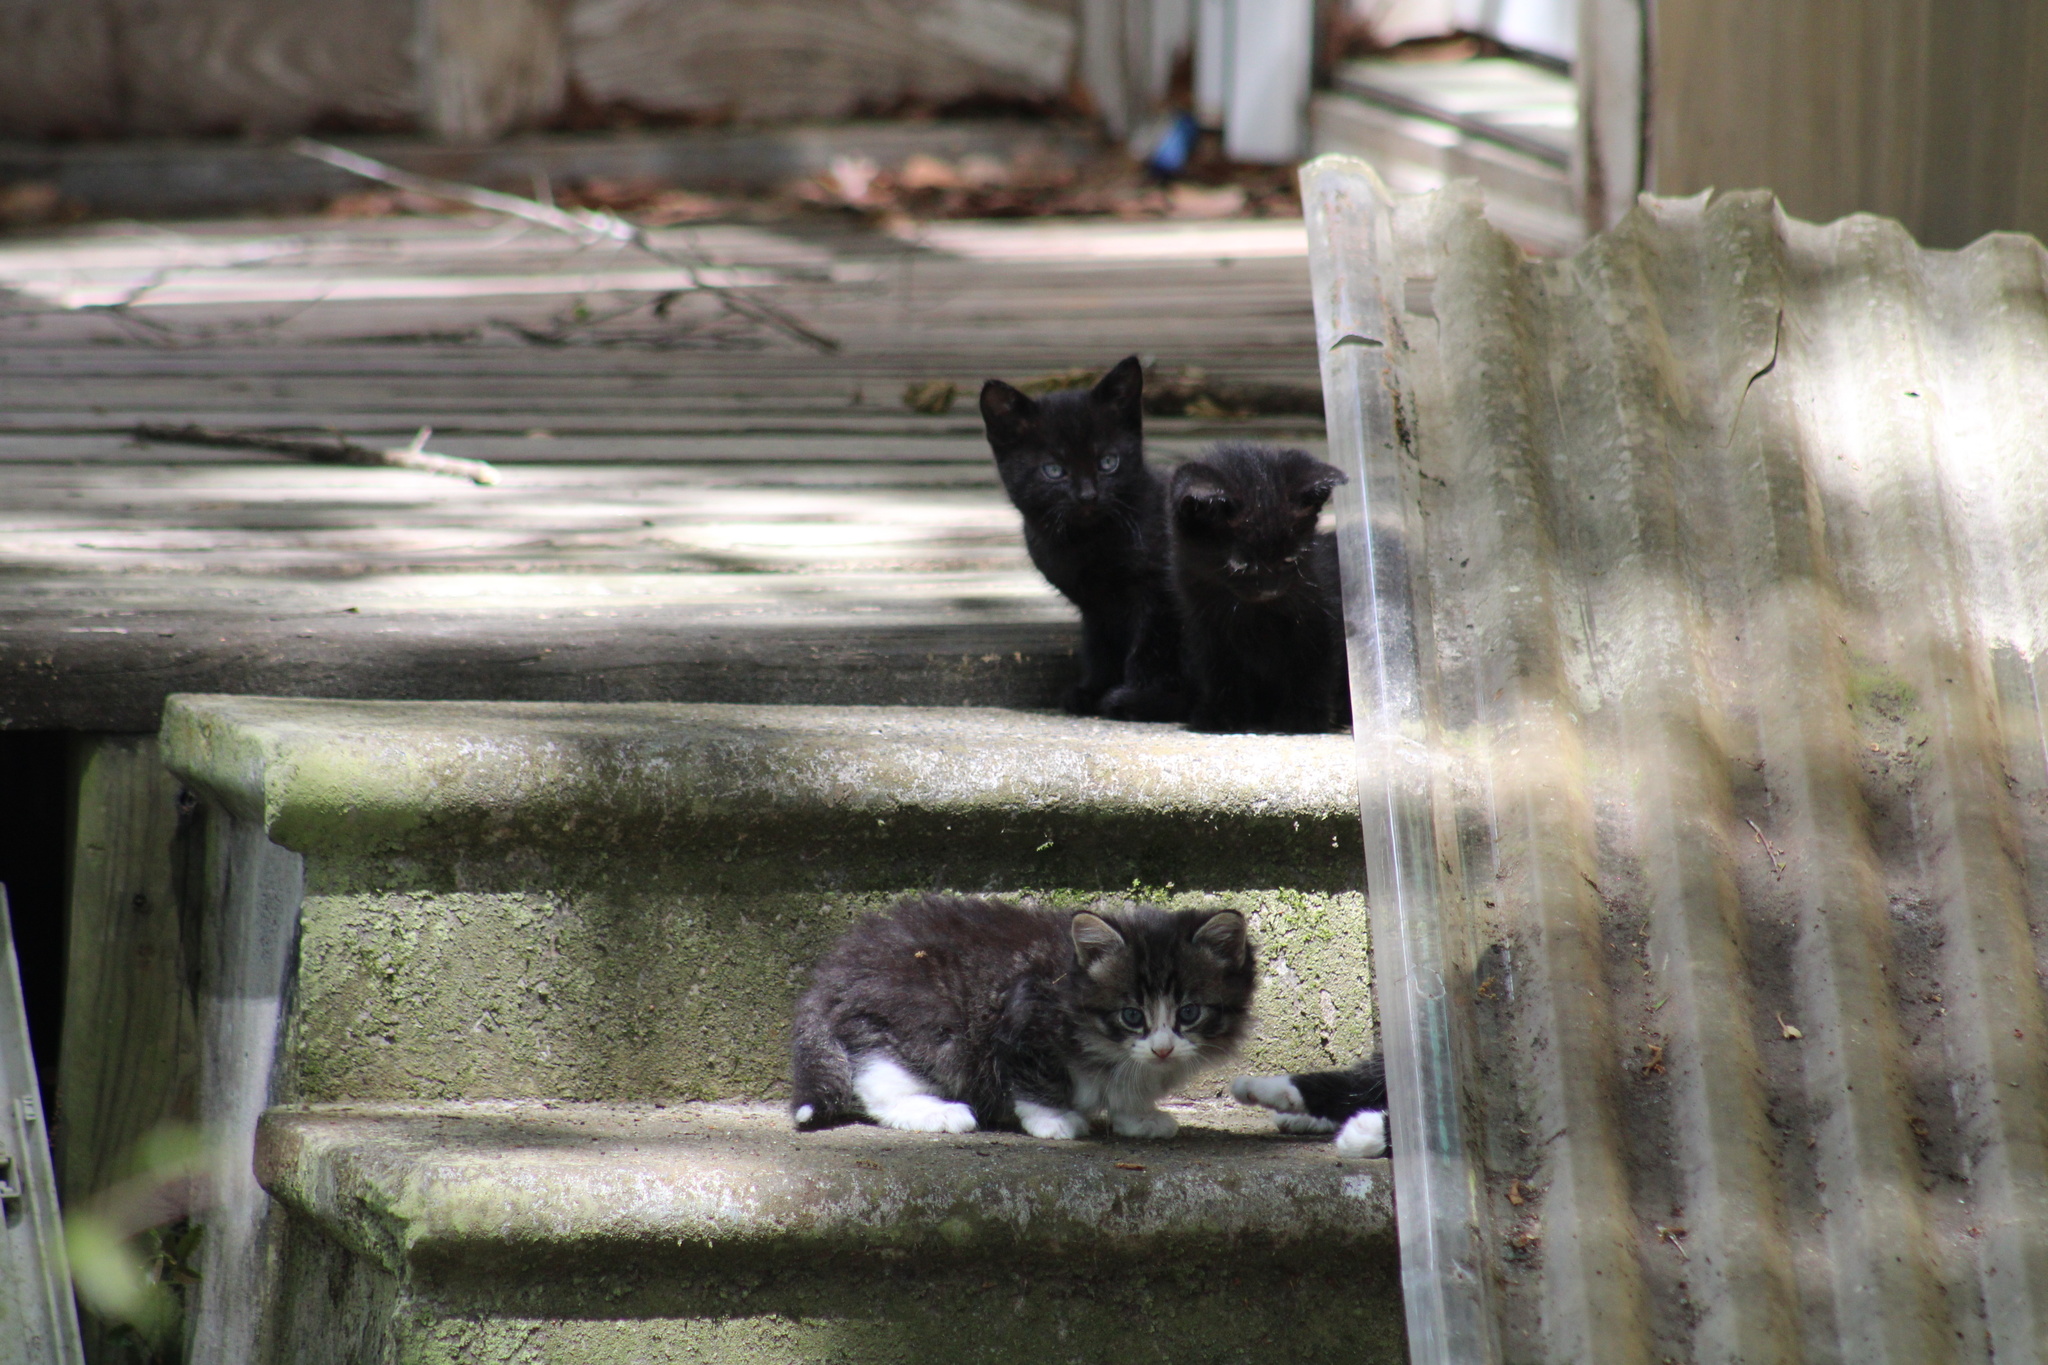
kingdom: Animalia
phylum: Chordata
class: Mammalia
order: Carnivora
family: Felidae
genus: Felis
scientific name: Felis catus
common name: Domestic cat
